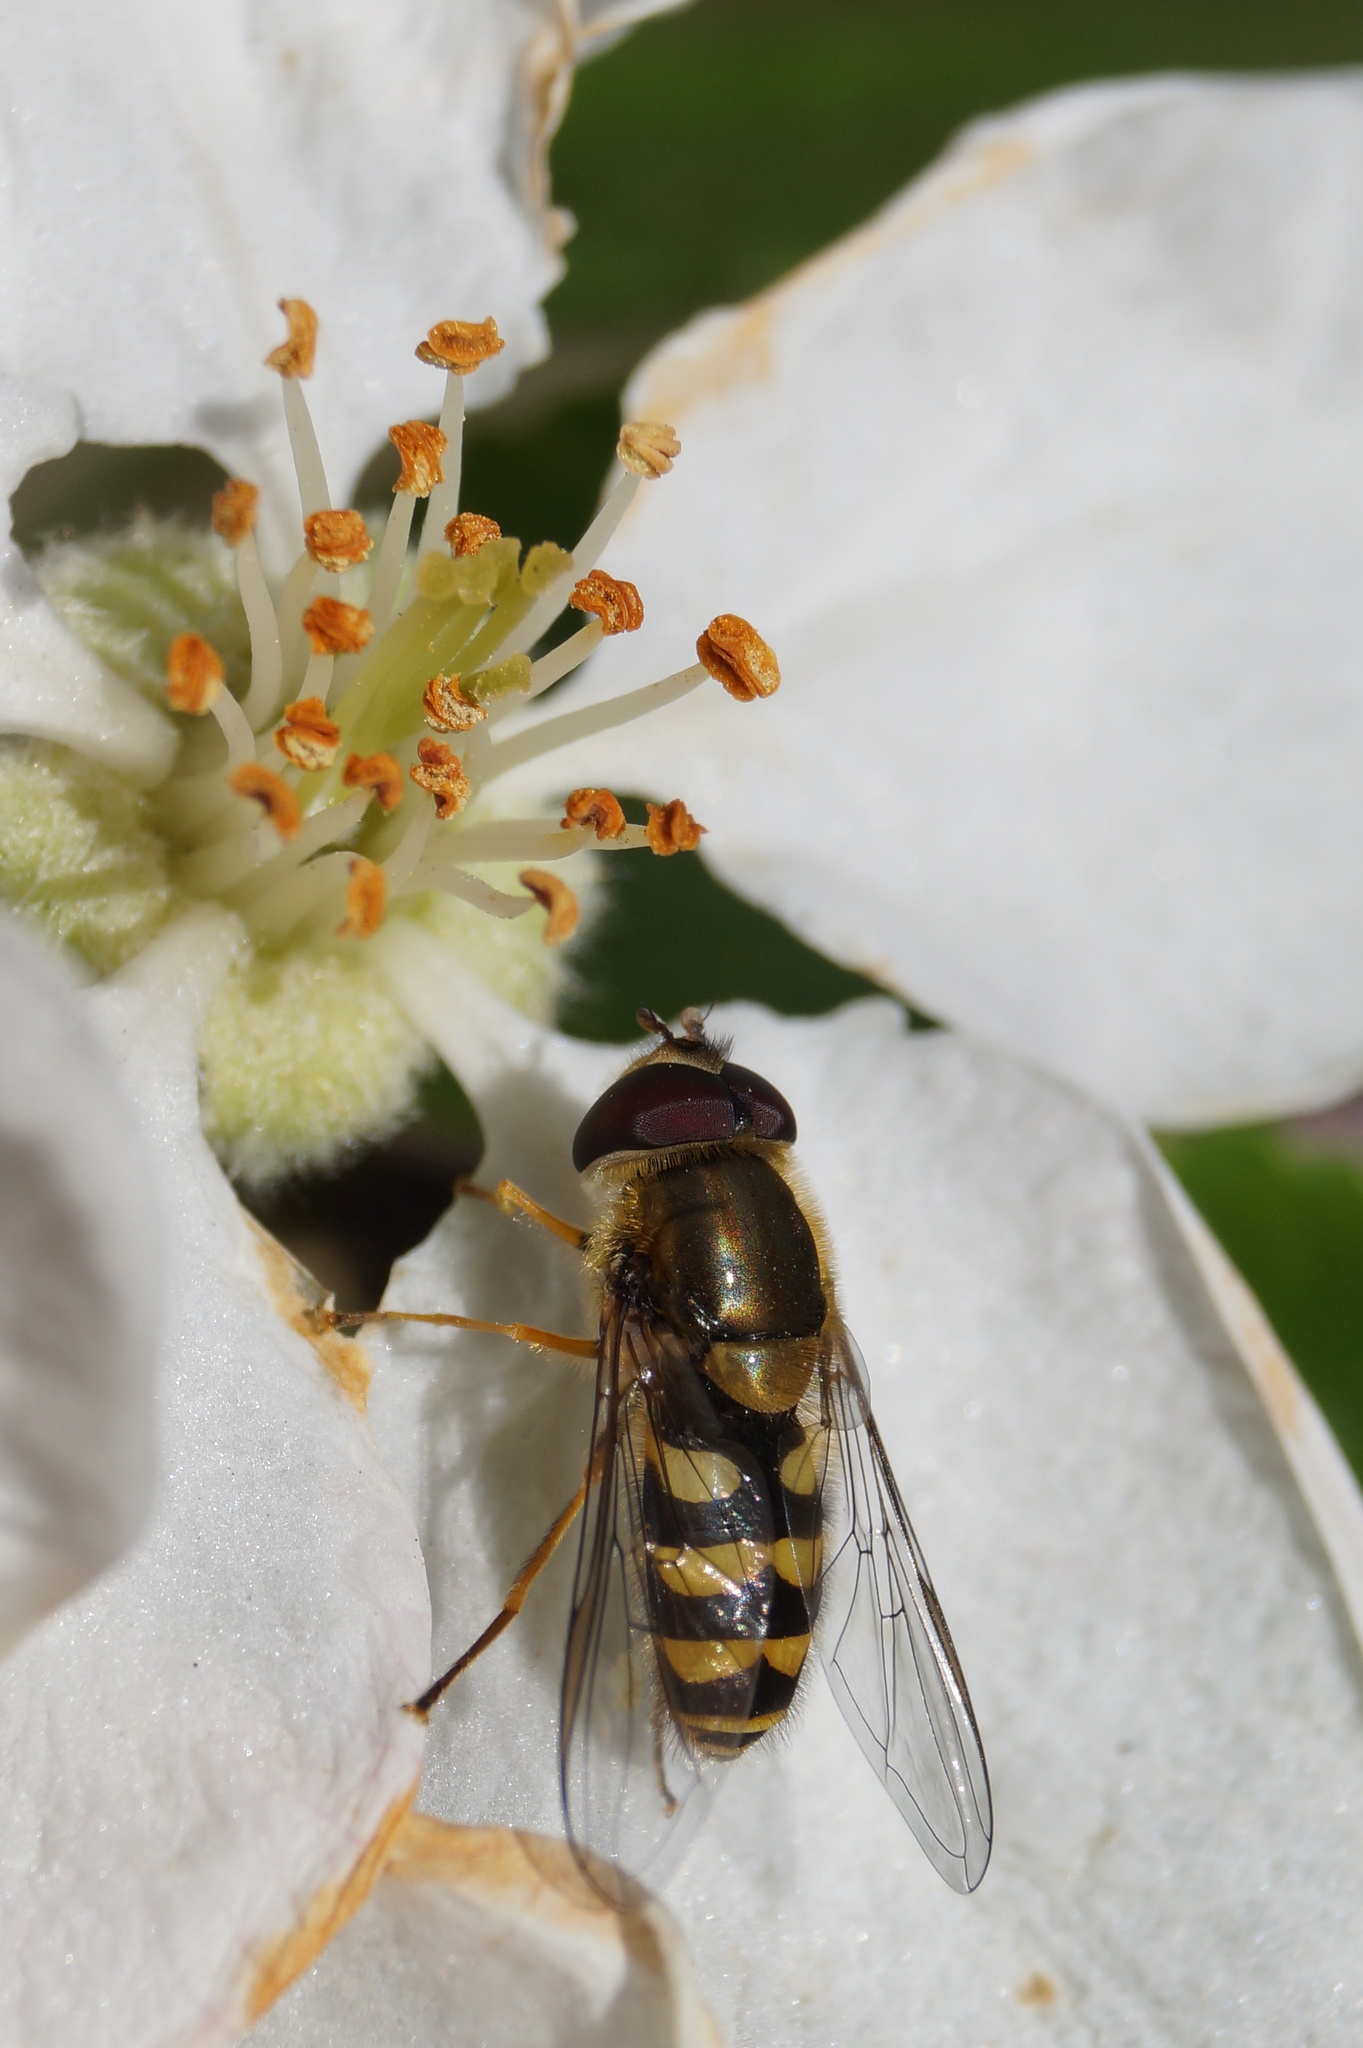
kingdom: Animalia
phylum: Arthropoda
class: Insecta
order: Diptera
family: Syrphidae
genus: Syrphus
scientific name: Syrphus
